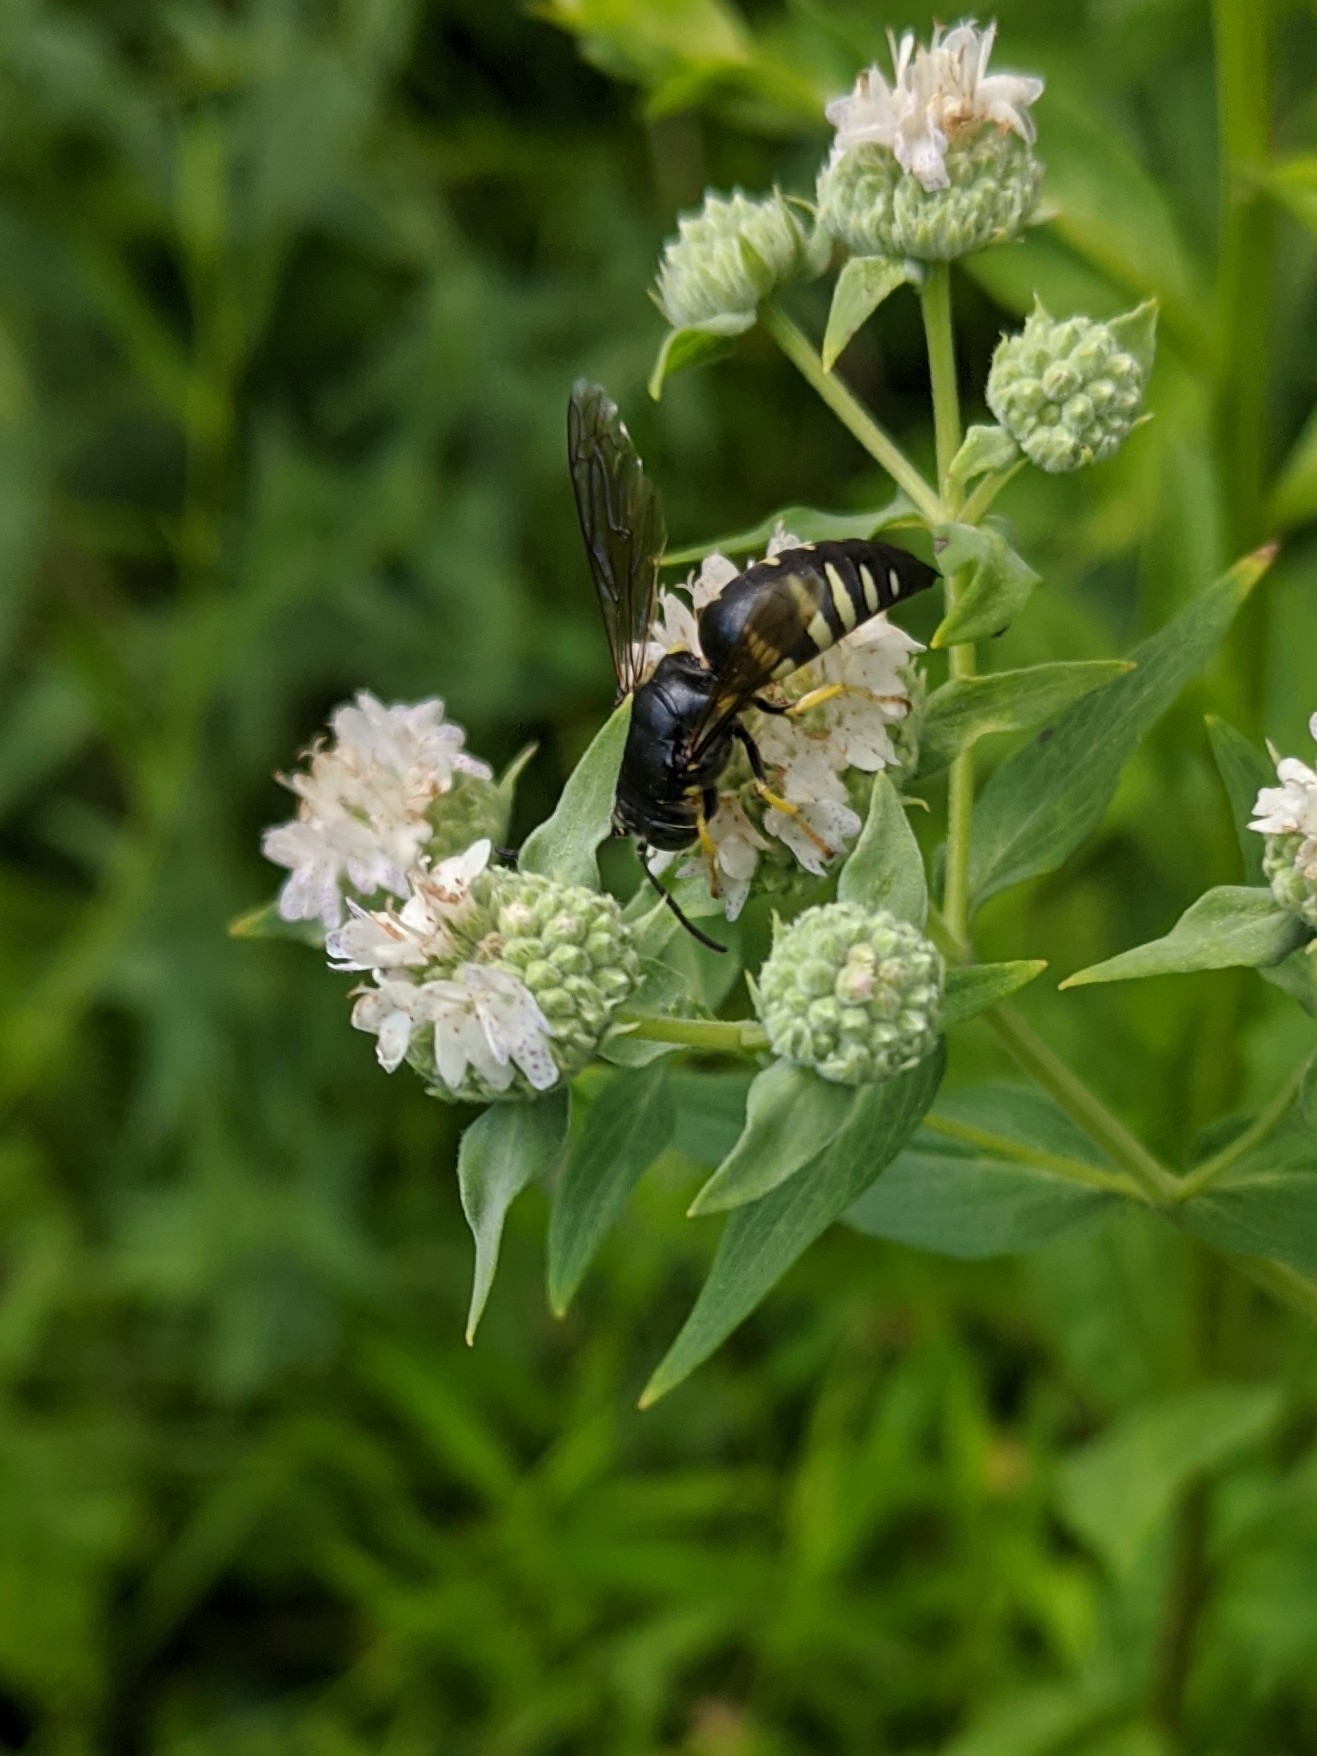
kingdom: Animalia
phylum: Arthropoda
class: Insecta
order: Hymenoptera
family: Crabronidae
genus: Bicyrtes
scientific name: Bicyrtes quadrifasciatus
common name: Four-banded stink bug hunter wasp
